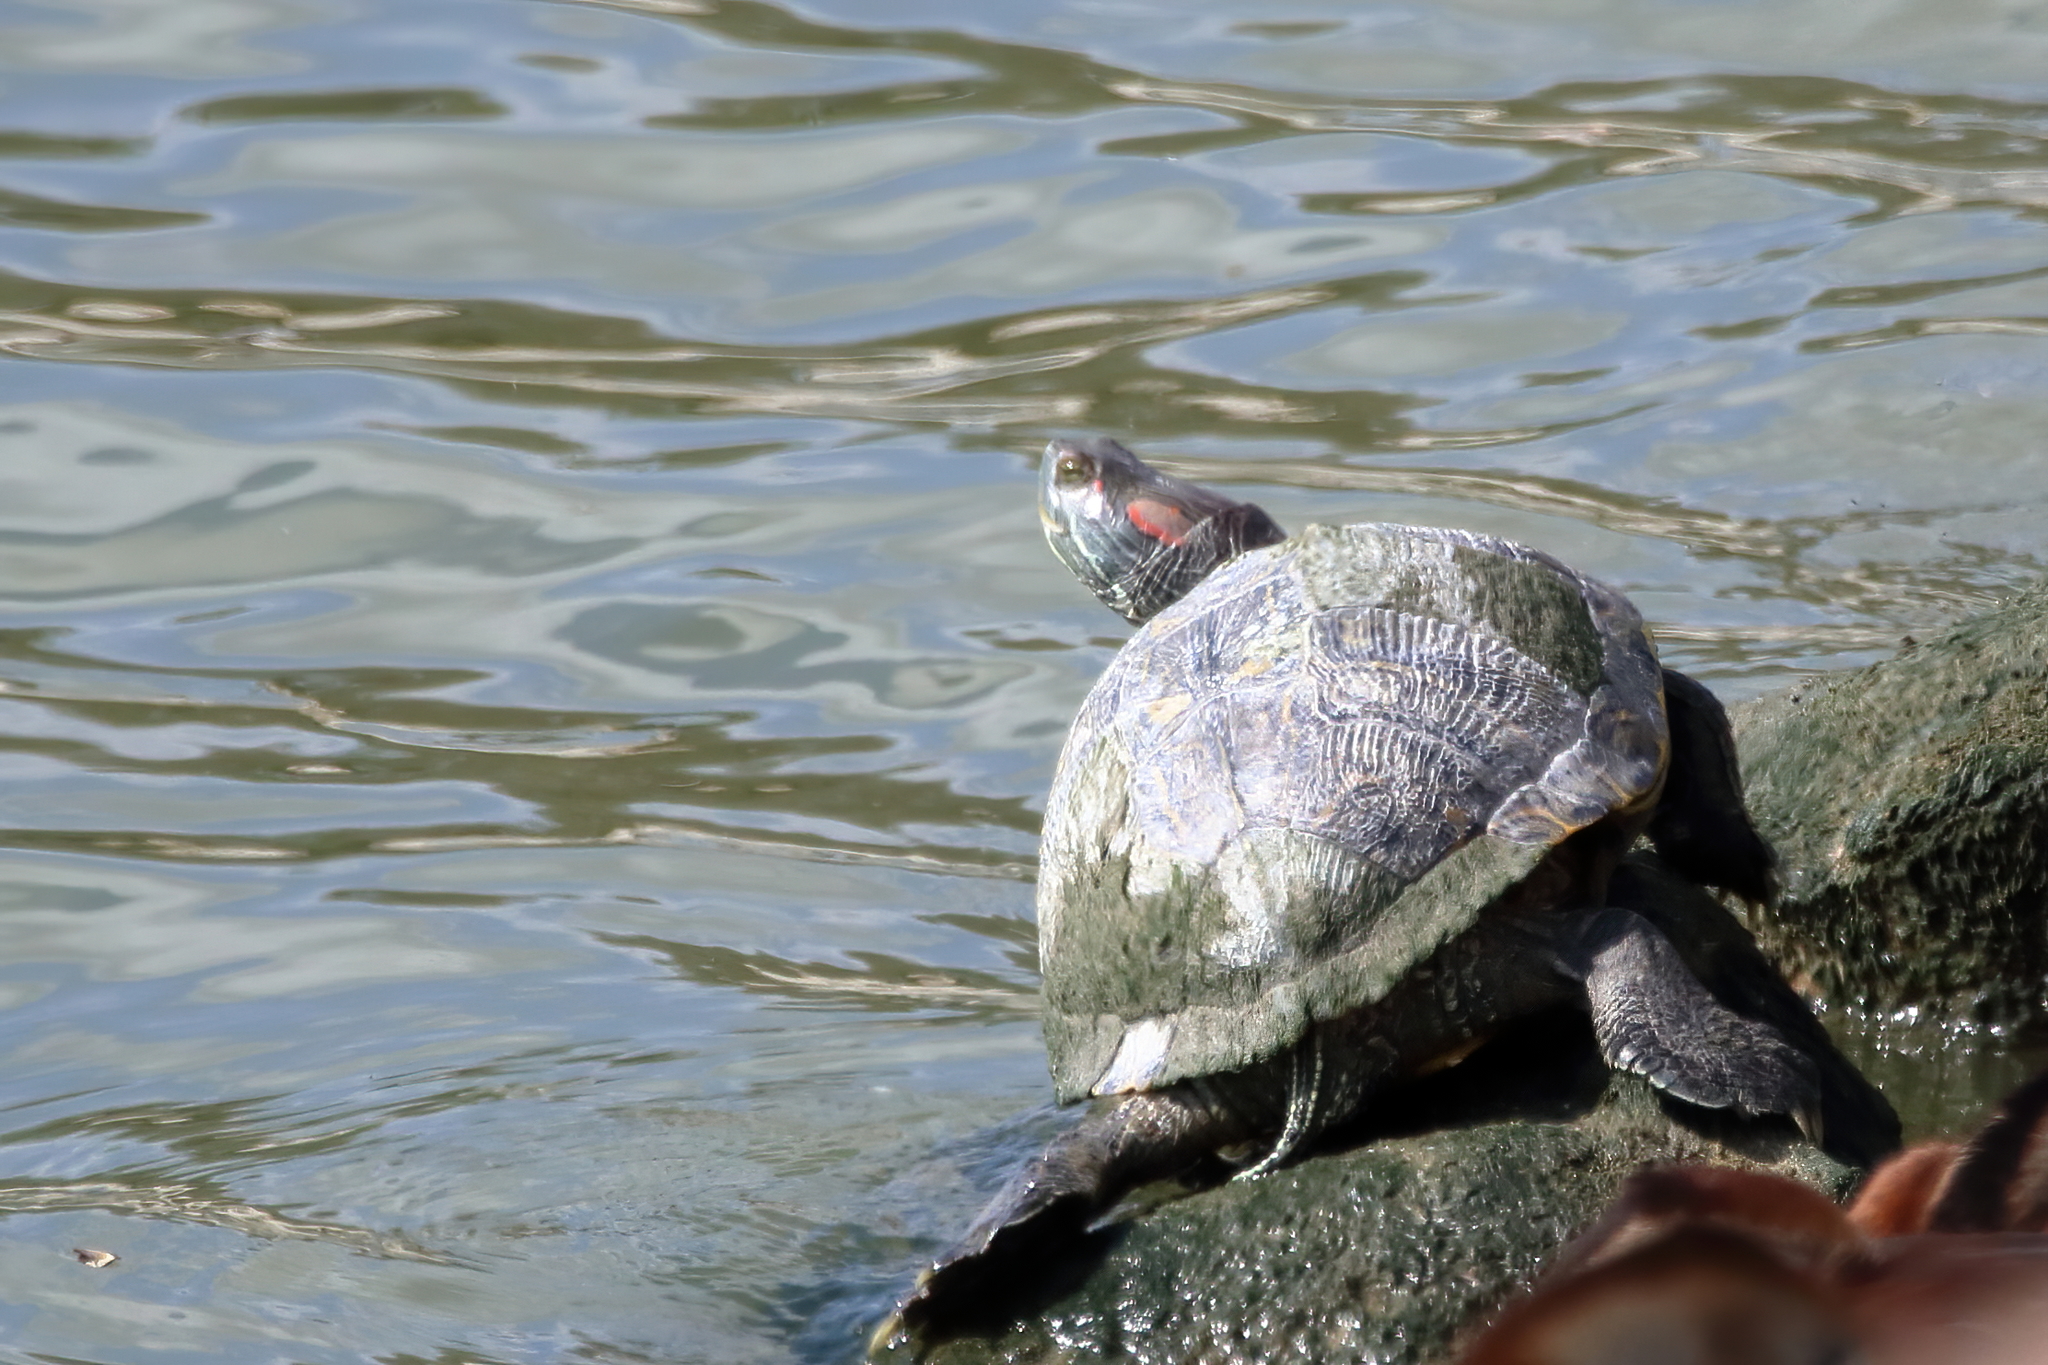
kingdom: Animalia
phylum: Chordata
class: Testudines
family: Emydidae
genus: Trachemys
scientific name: Trachemys scripta
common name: Slider
